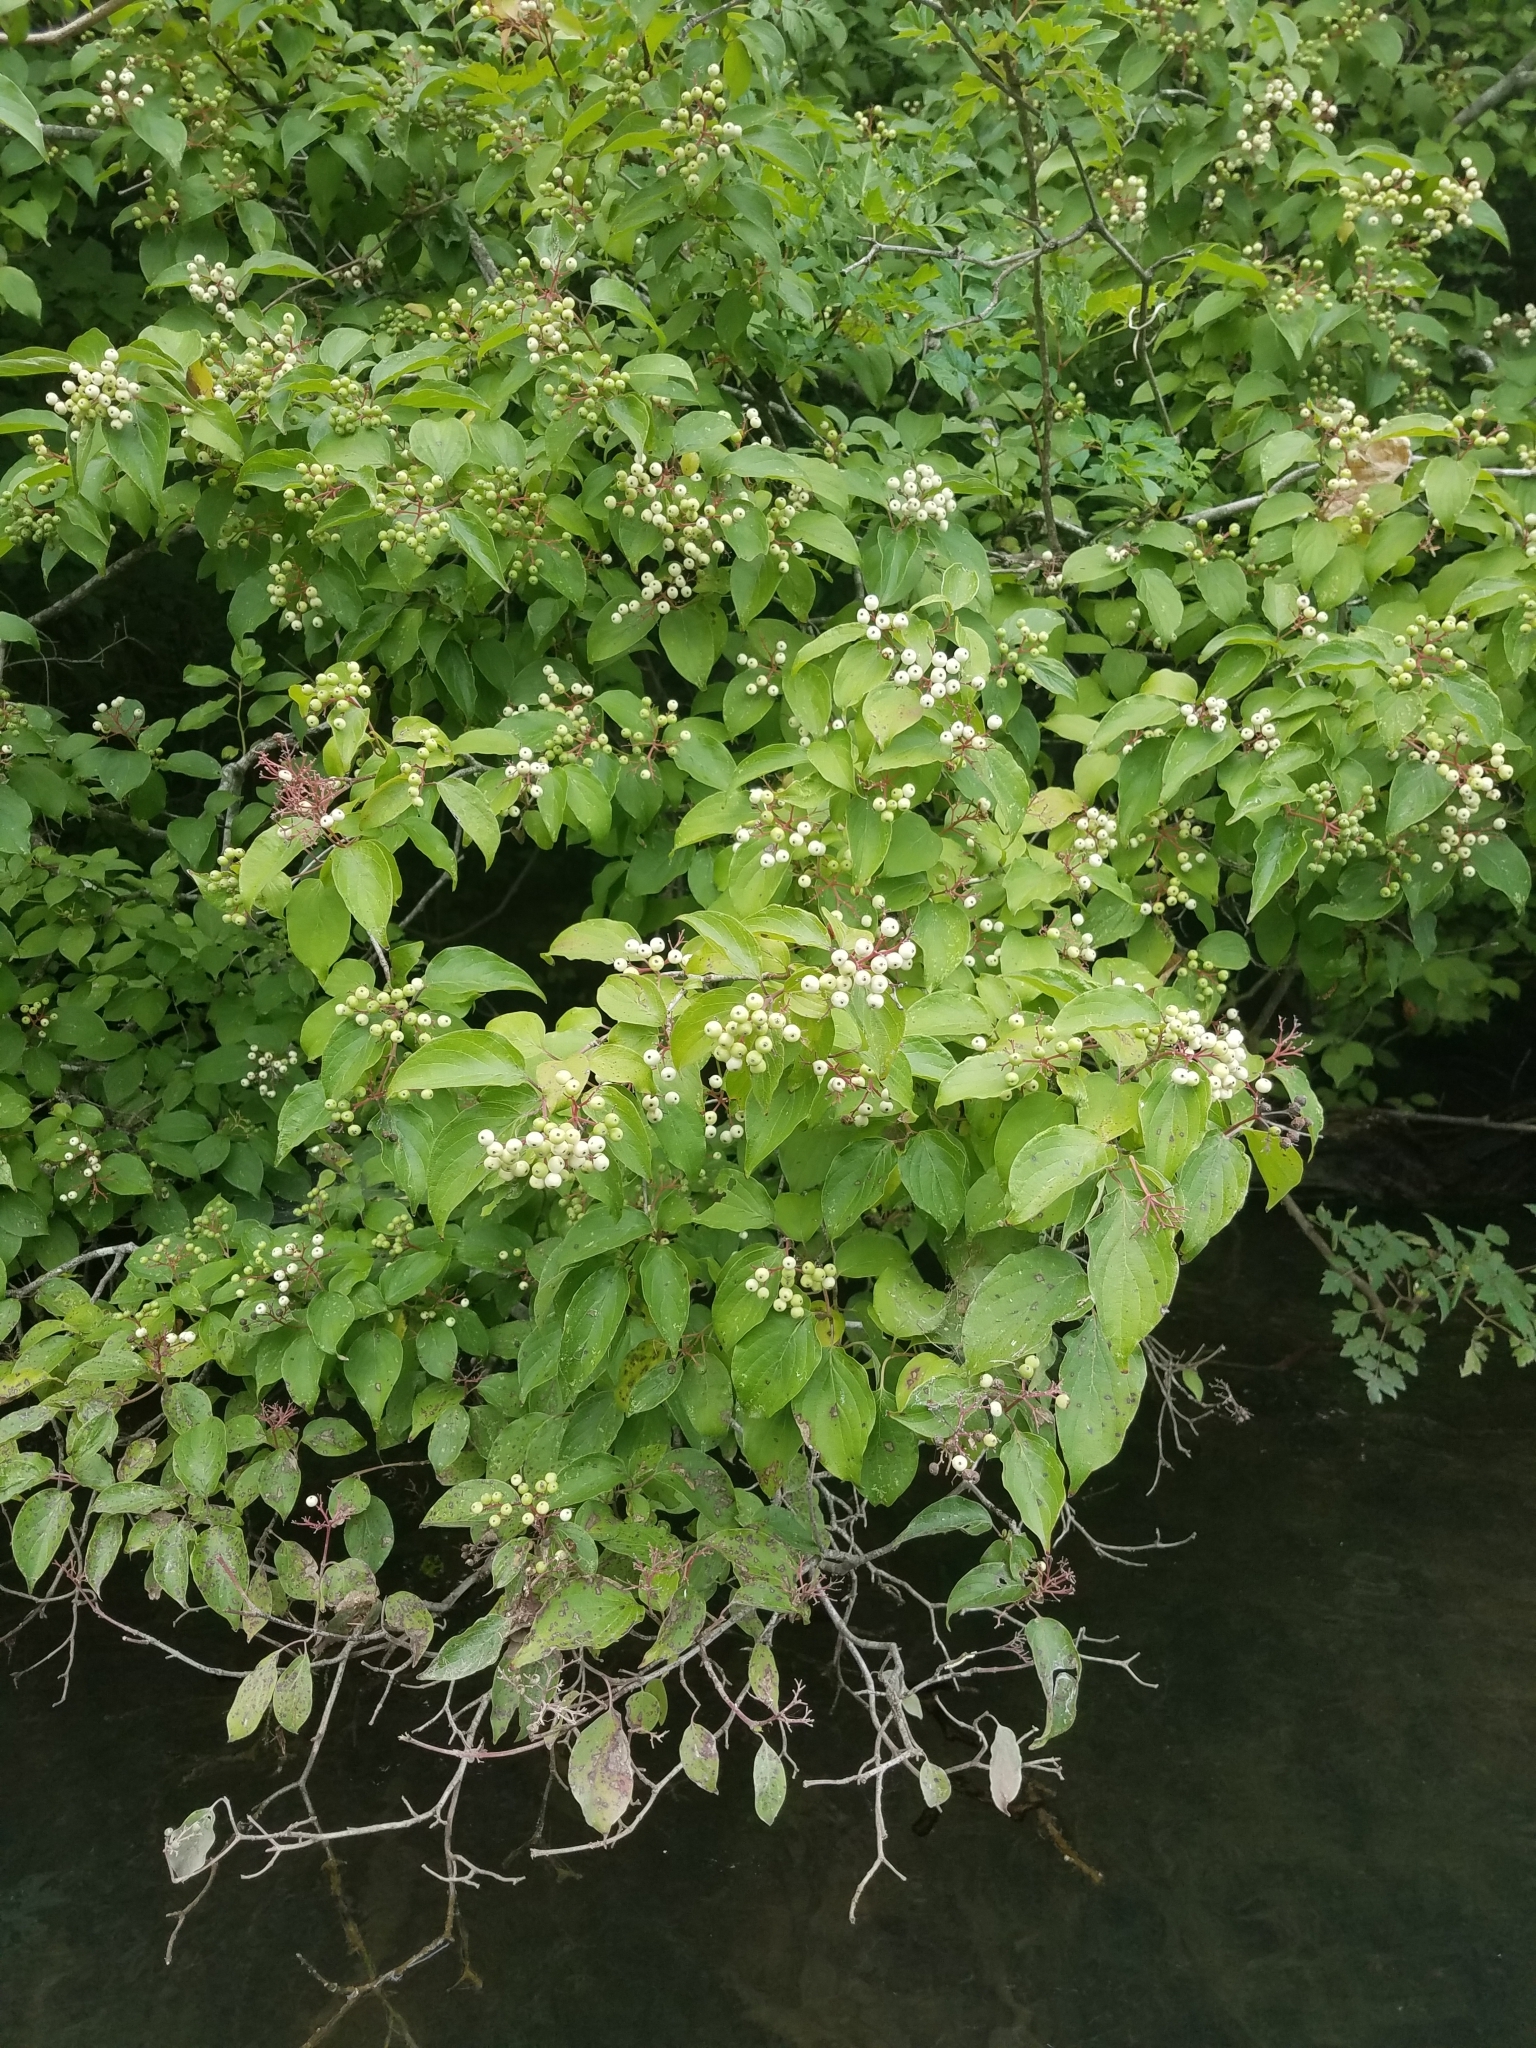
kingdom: Plantae
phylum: Tracheophyta
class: Magnoliopsida
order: Cornales
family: Cornaceae
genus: Cornus
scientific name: Cornus drummondii
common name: Rough-leaf dogwood
